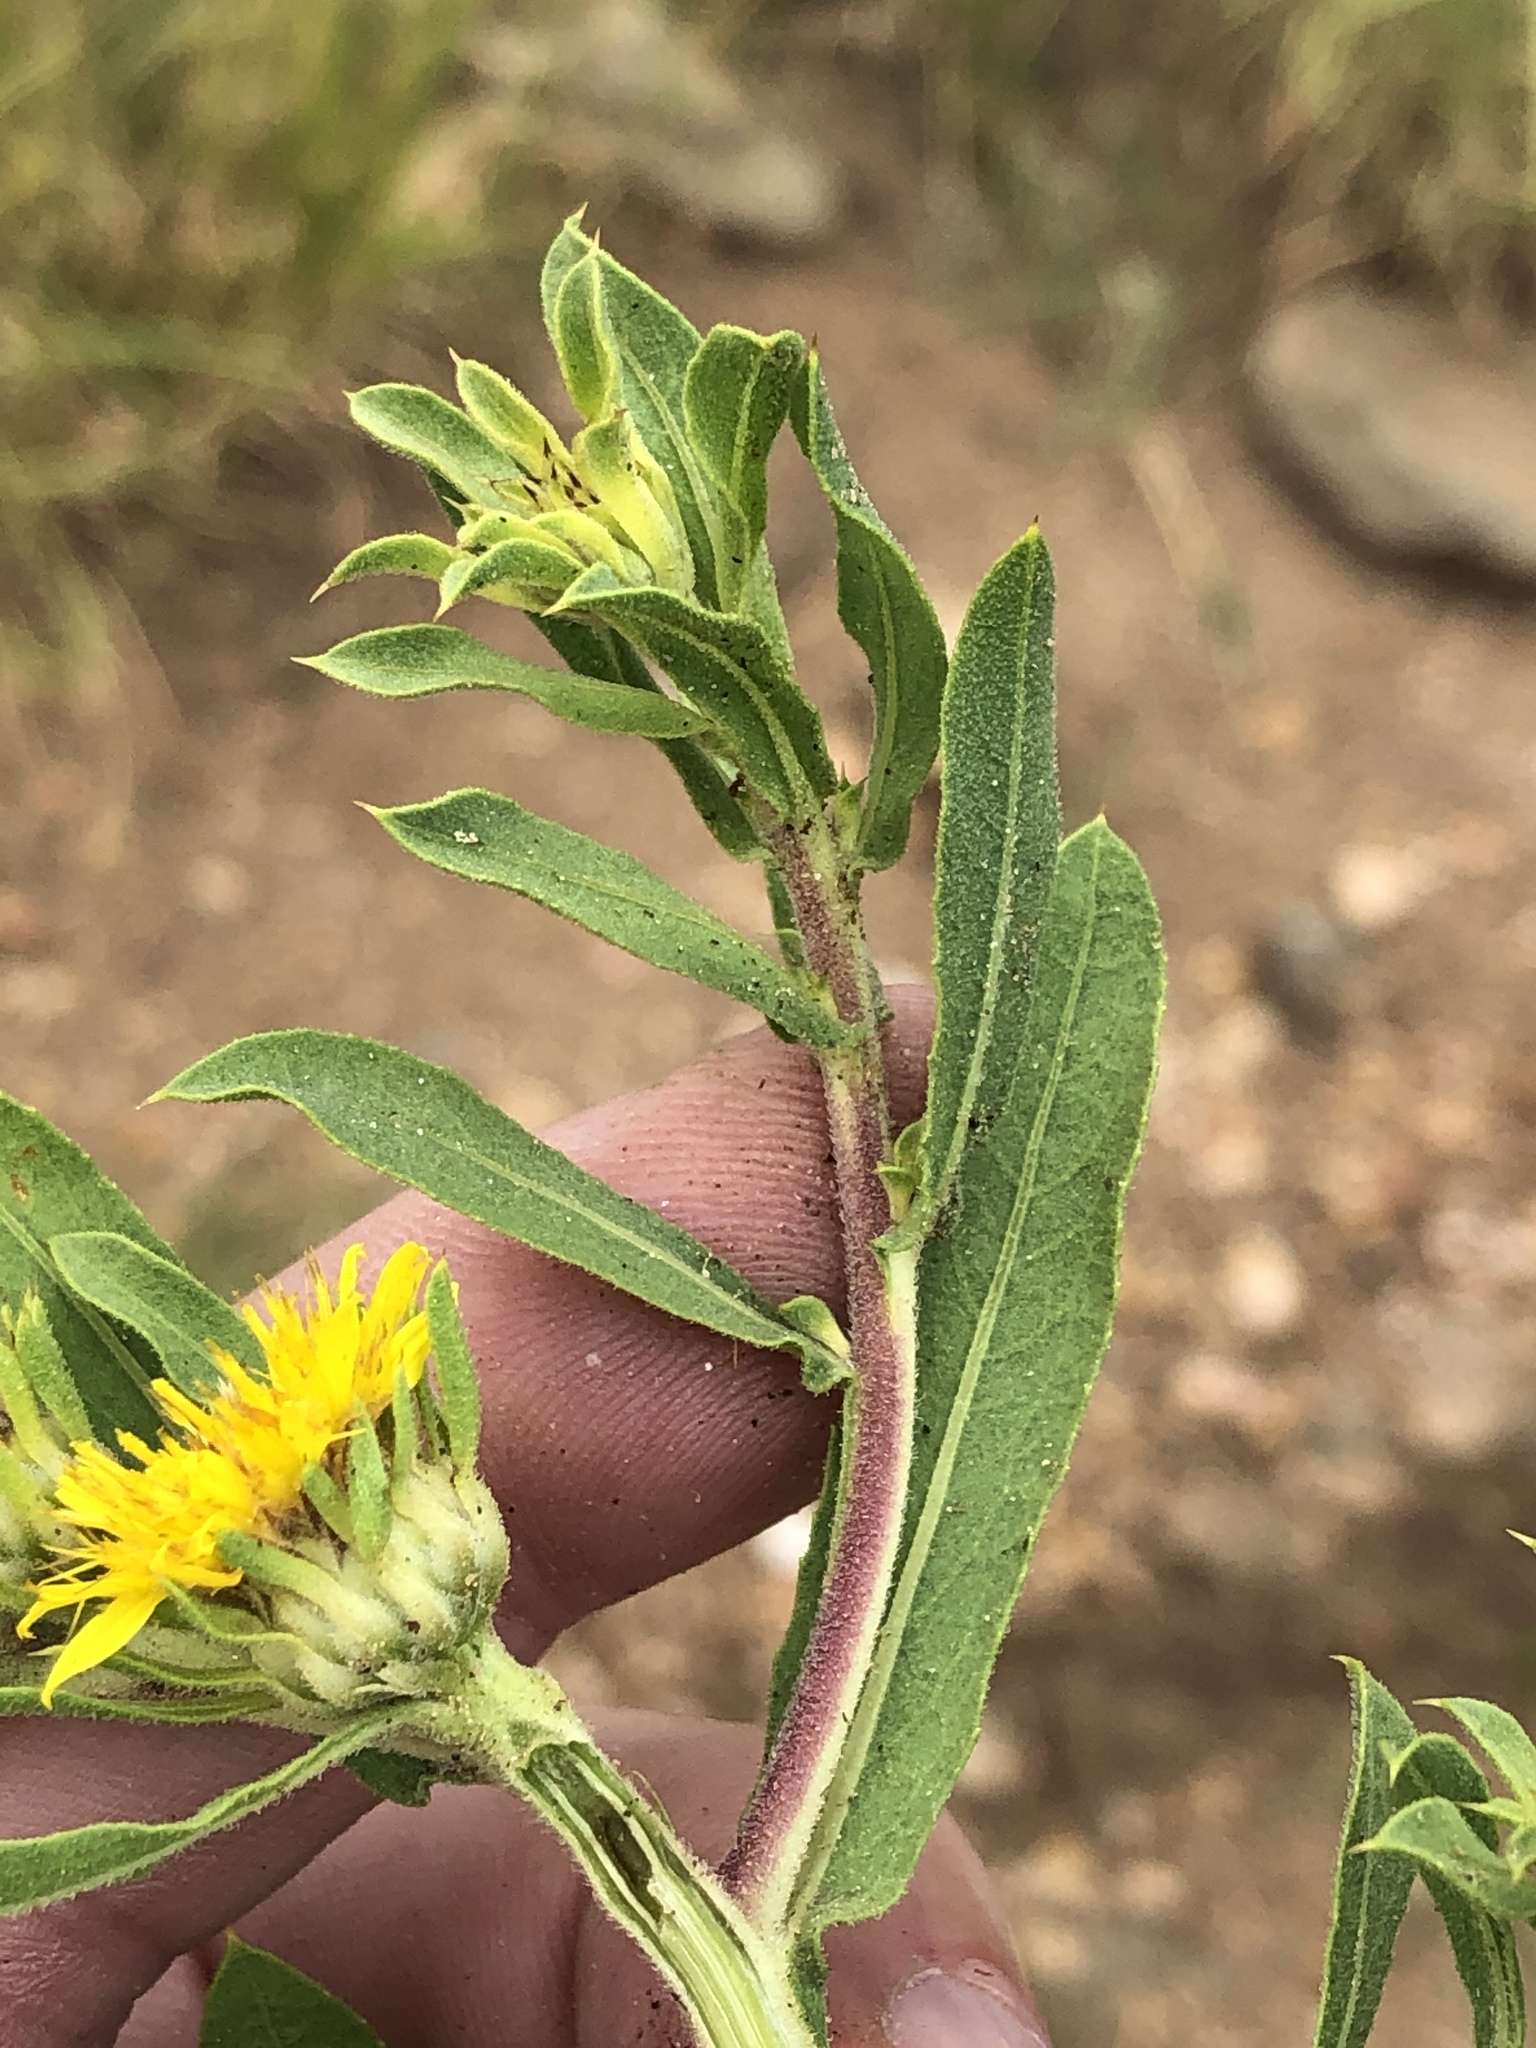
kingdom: Plantae
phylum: Tracheophyta
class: Magnoliopsida
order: Asterales
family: Asteraceae
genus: Geigeria
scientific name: Geigeria pectidea
